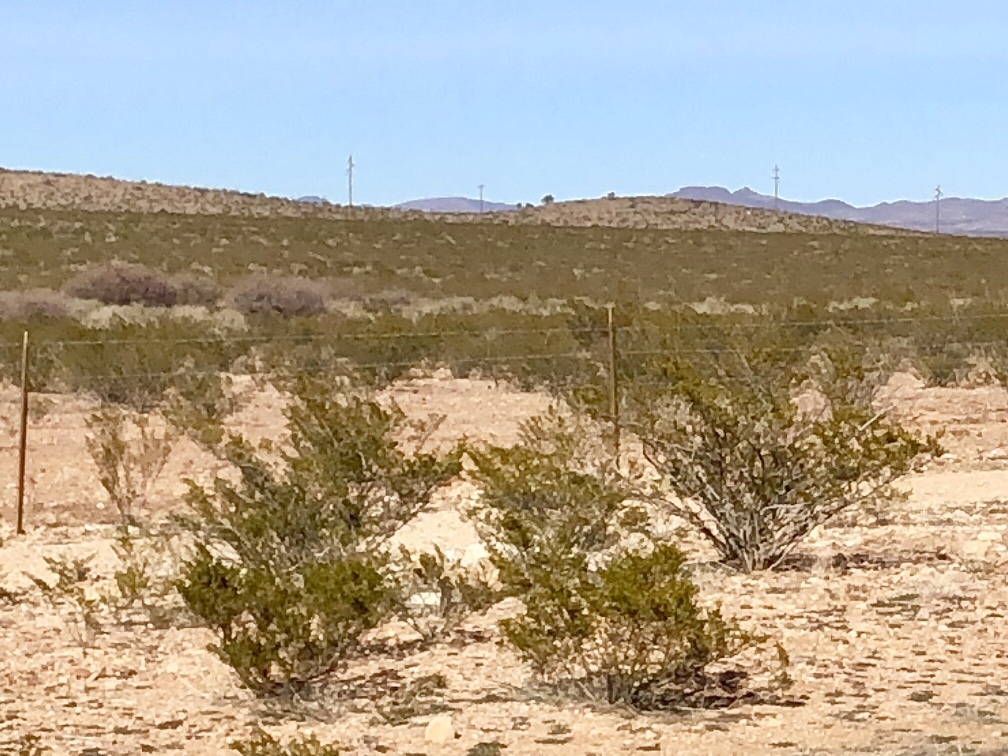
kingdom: Plantae
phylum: Tracheophyta
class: Magnoliopsida
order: Zygophyllales
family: Zygophyllaceae
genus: Larrea
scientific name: Larrea tridentata
